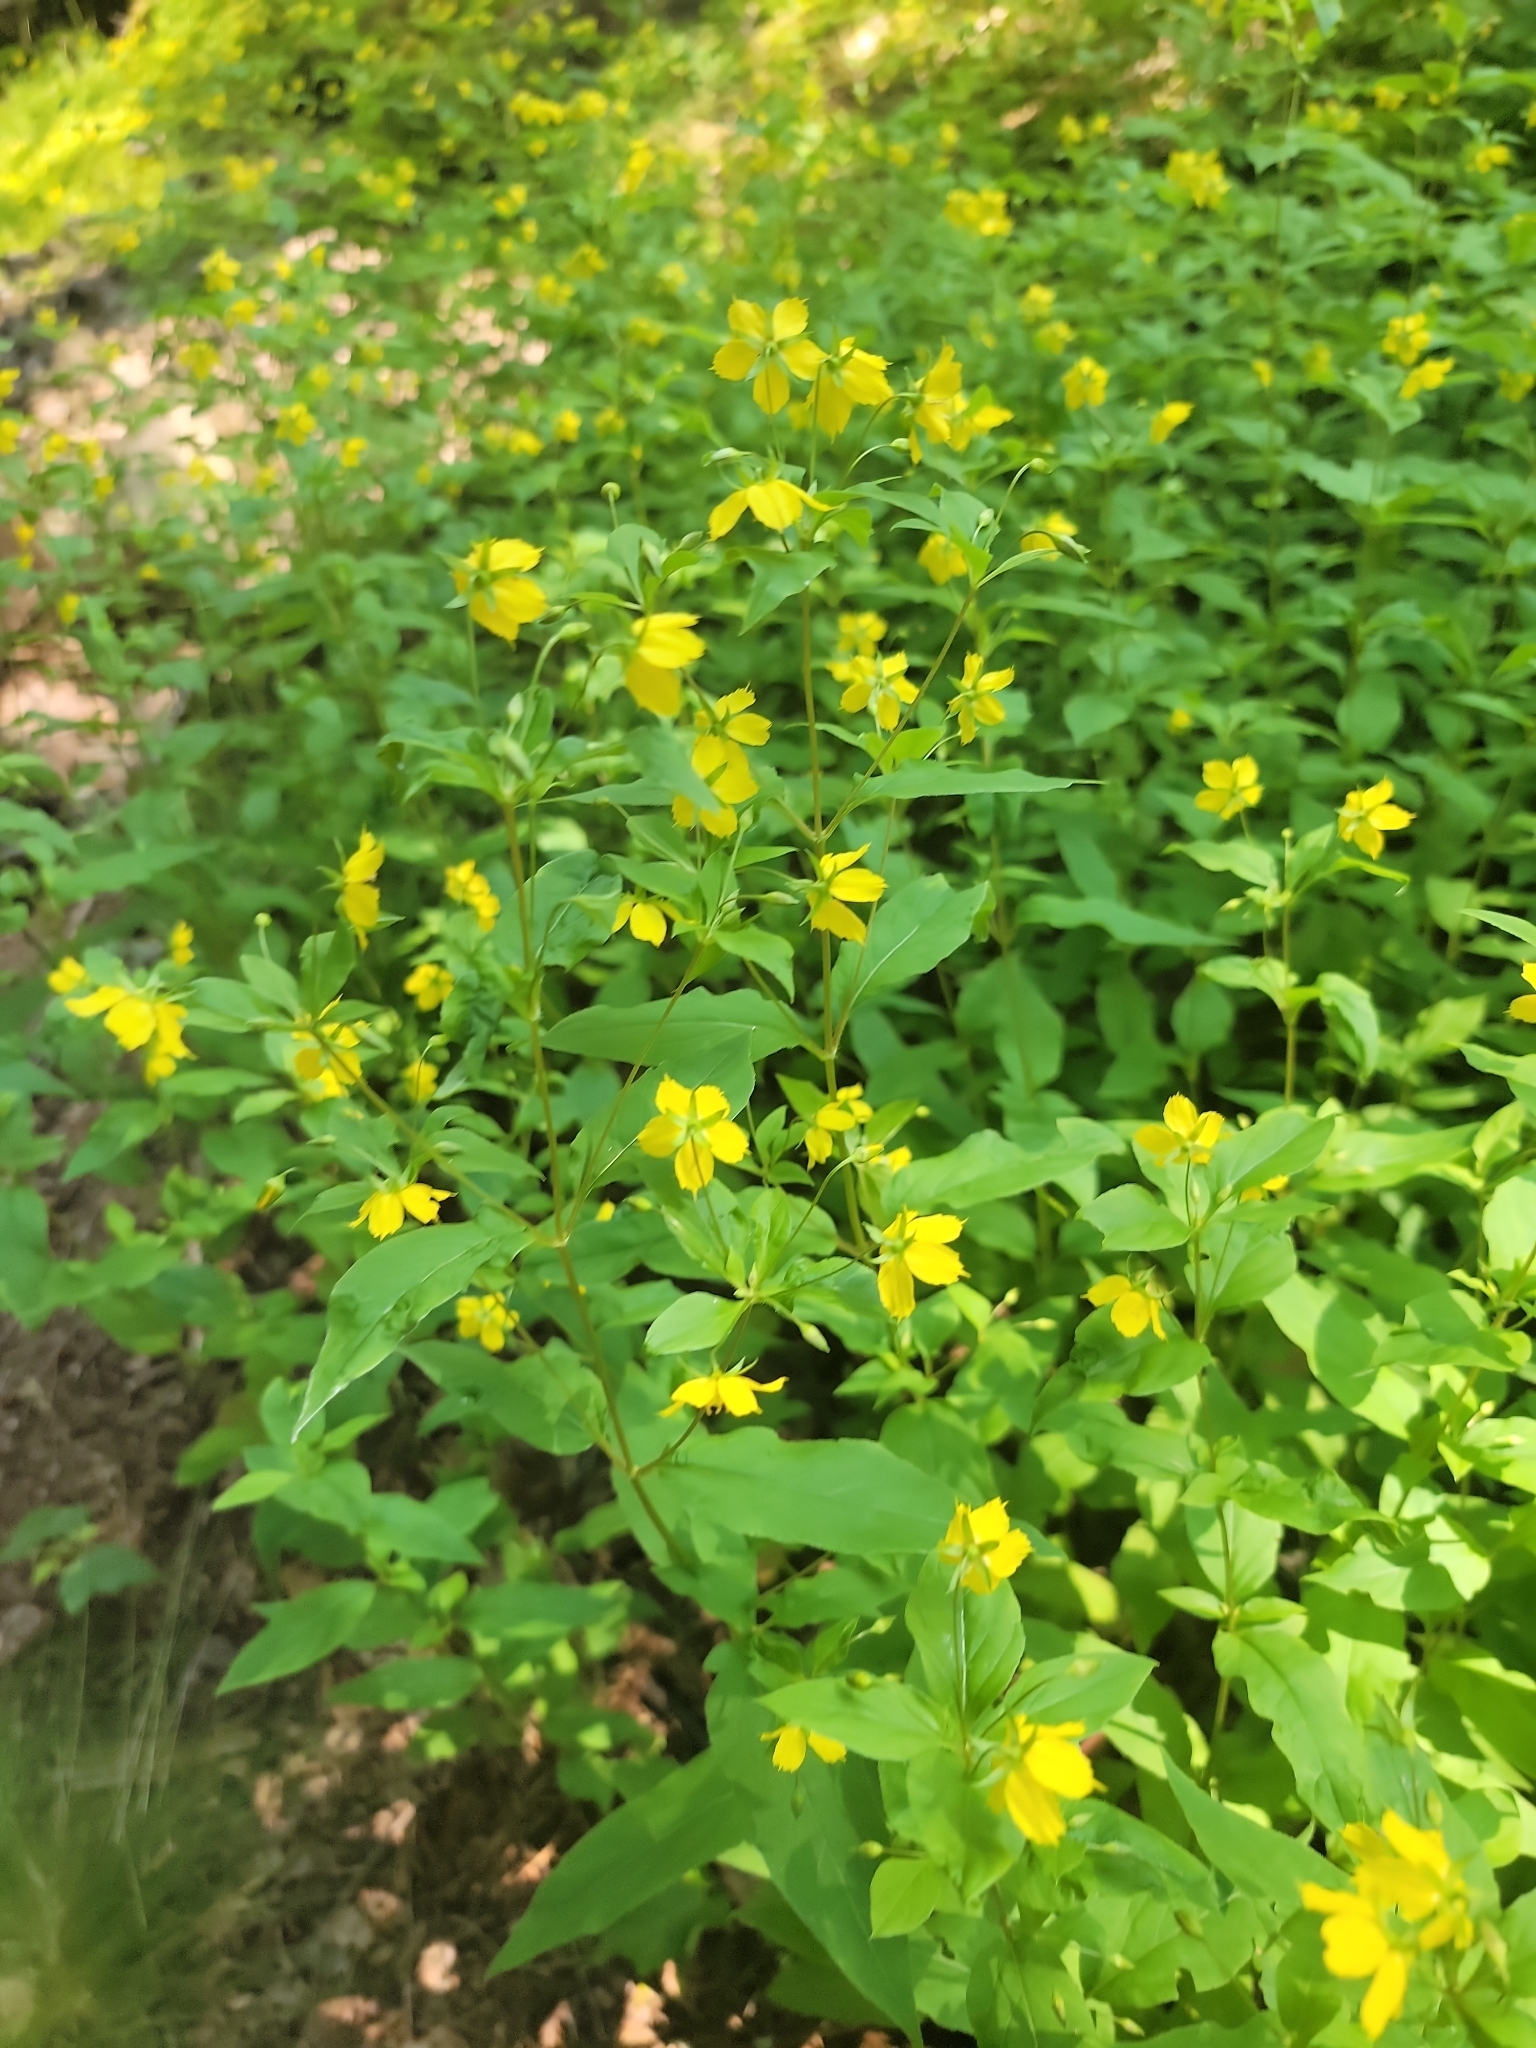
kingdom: Plantae
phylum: Tracheophyta
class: Magnoliopsida
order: Ericales
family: Primulaceae
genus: Lysimachia
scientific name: Lysimachia ciliata
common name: Fringed loosestrife
